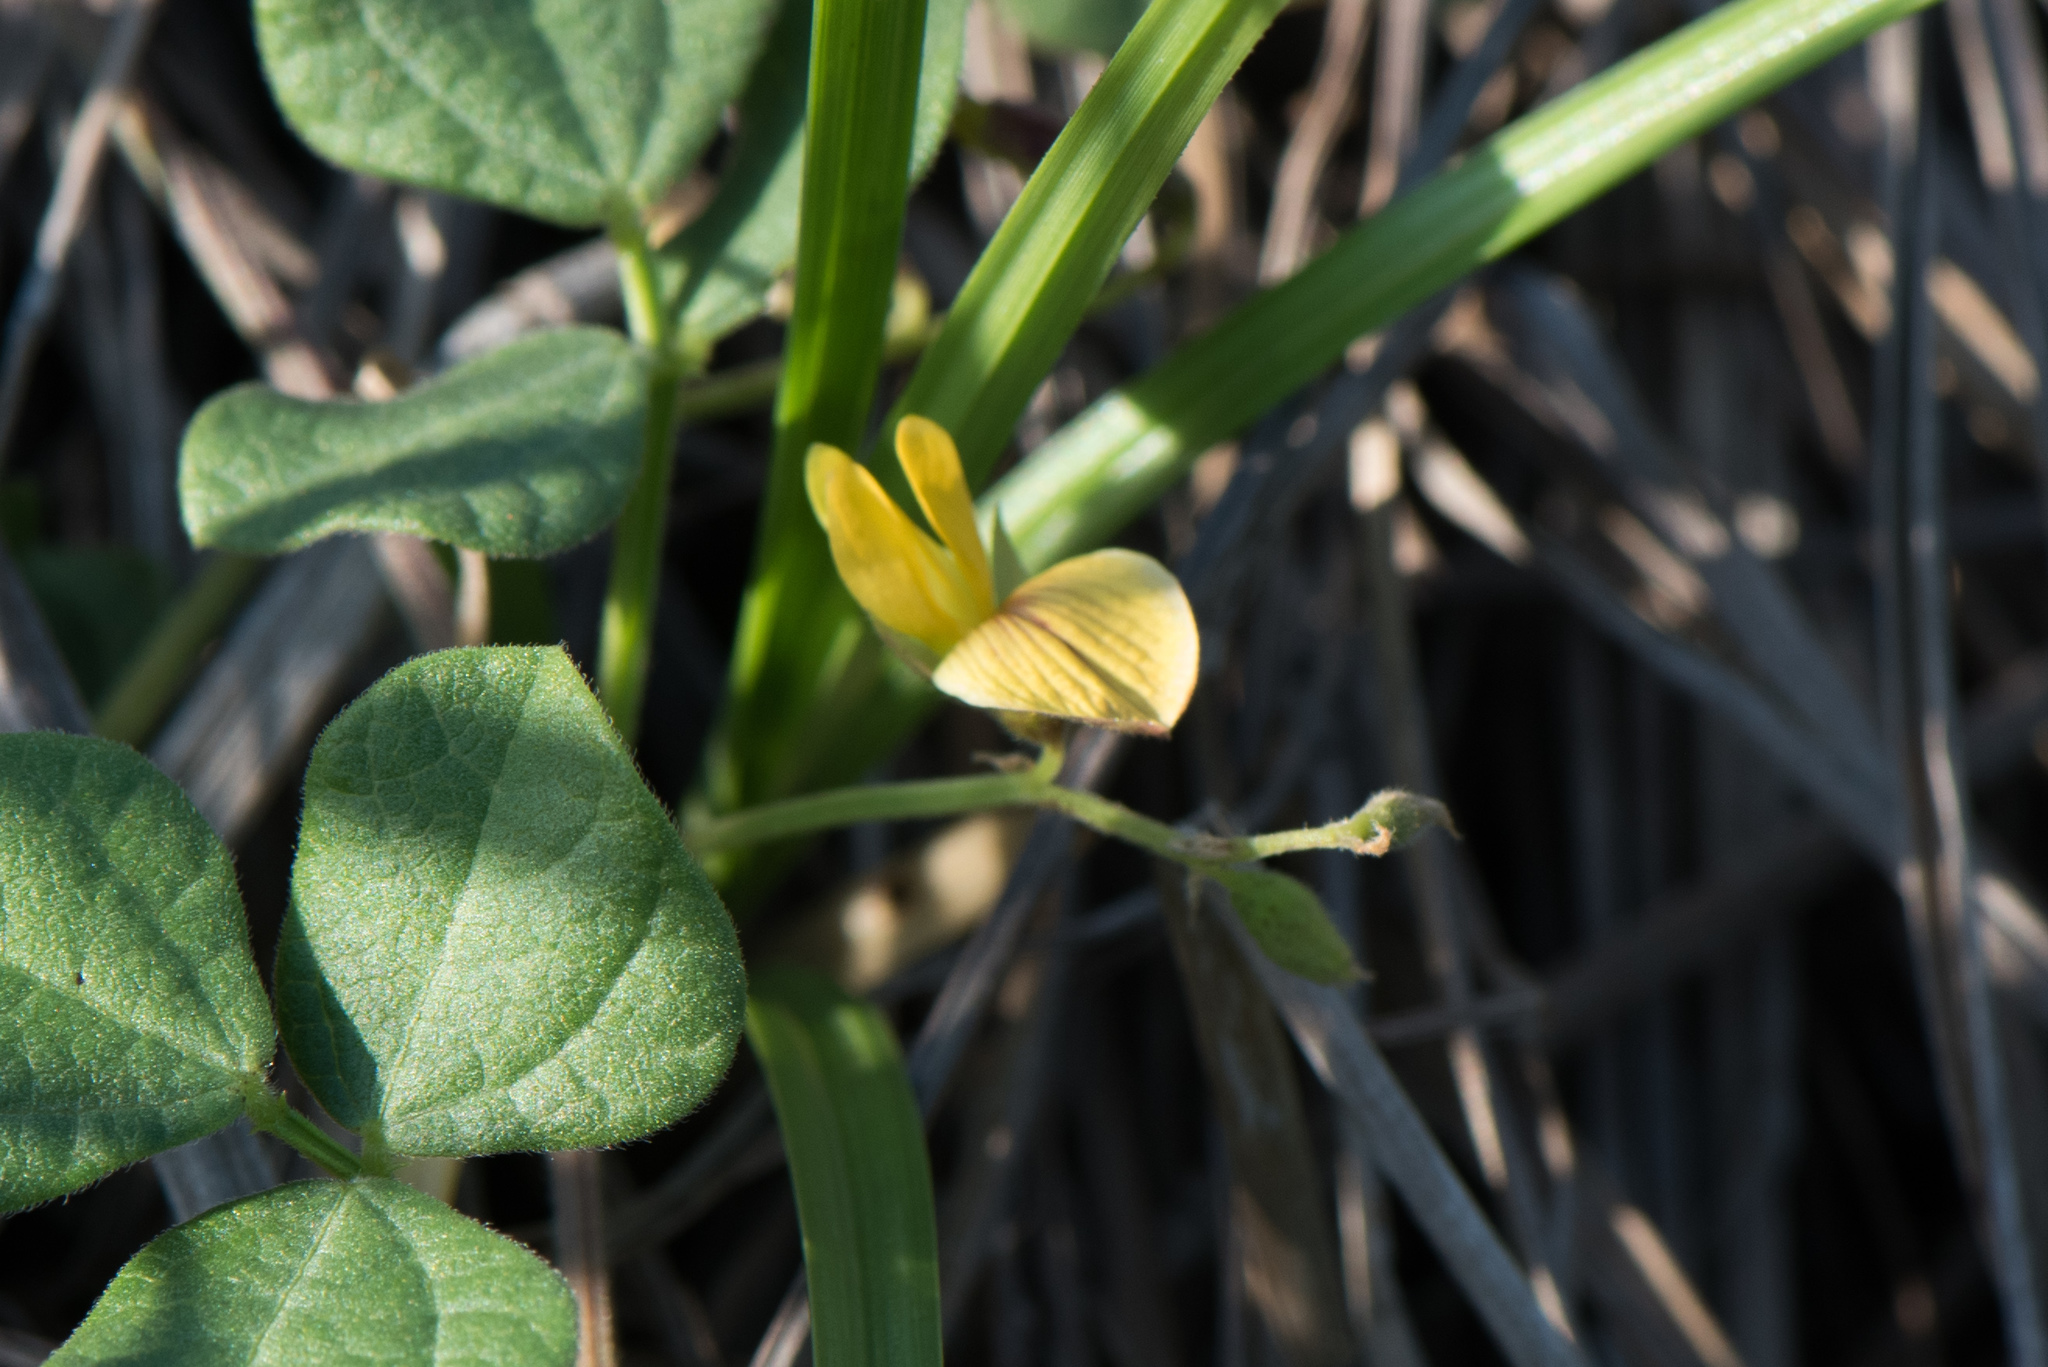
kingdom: Plantae
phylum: Tracheophyta
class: Magnoliopsida
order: Fabales
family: Fabaceae
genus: Rhynchosia
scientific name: Rhynchosia minima
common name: Least snoutbean
